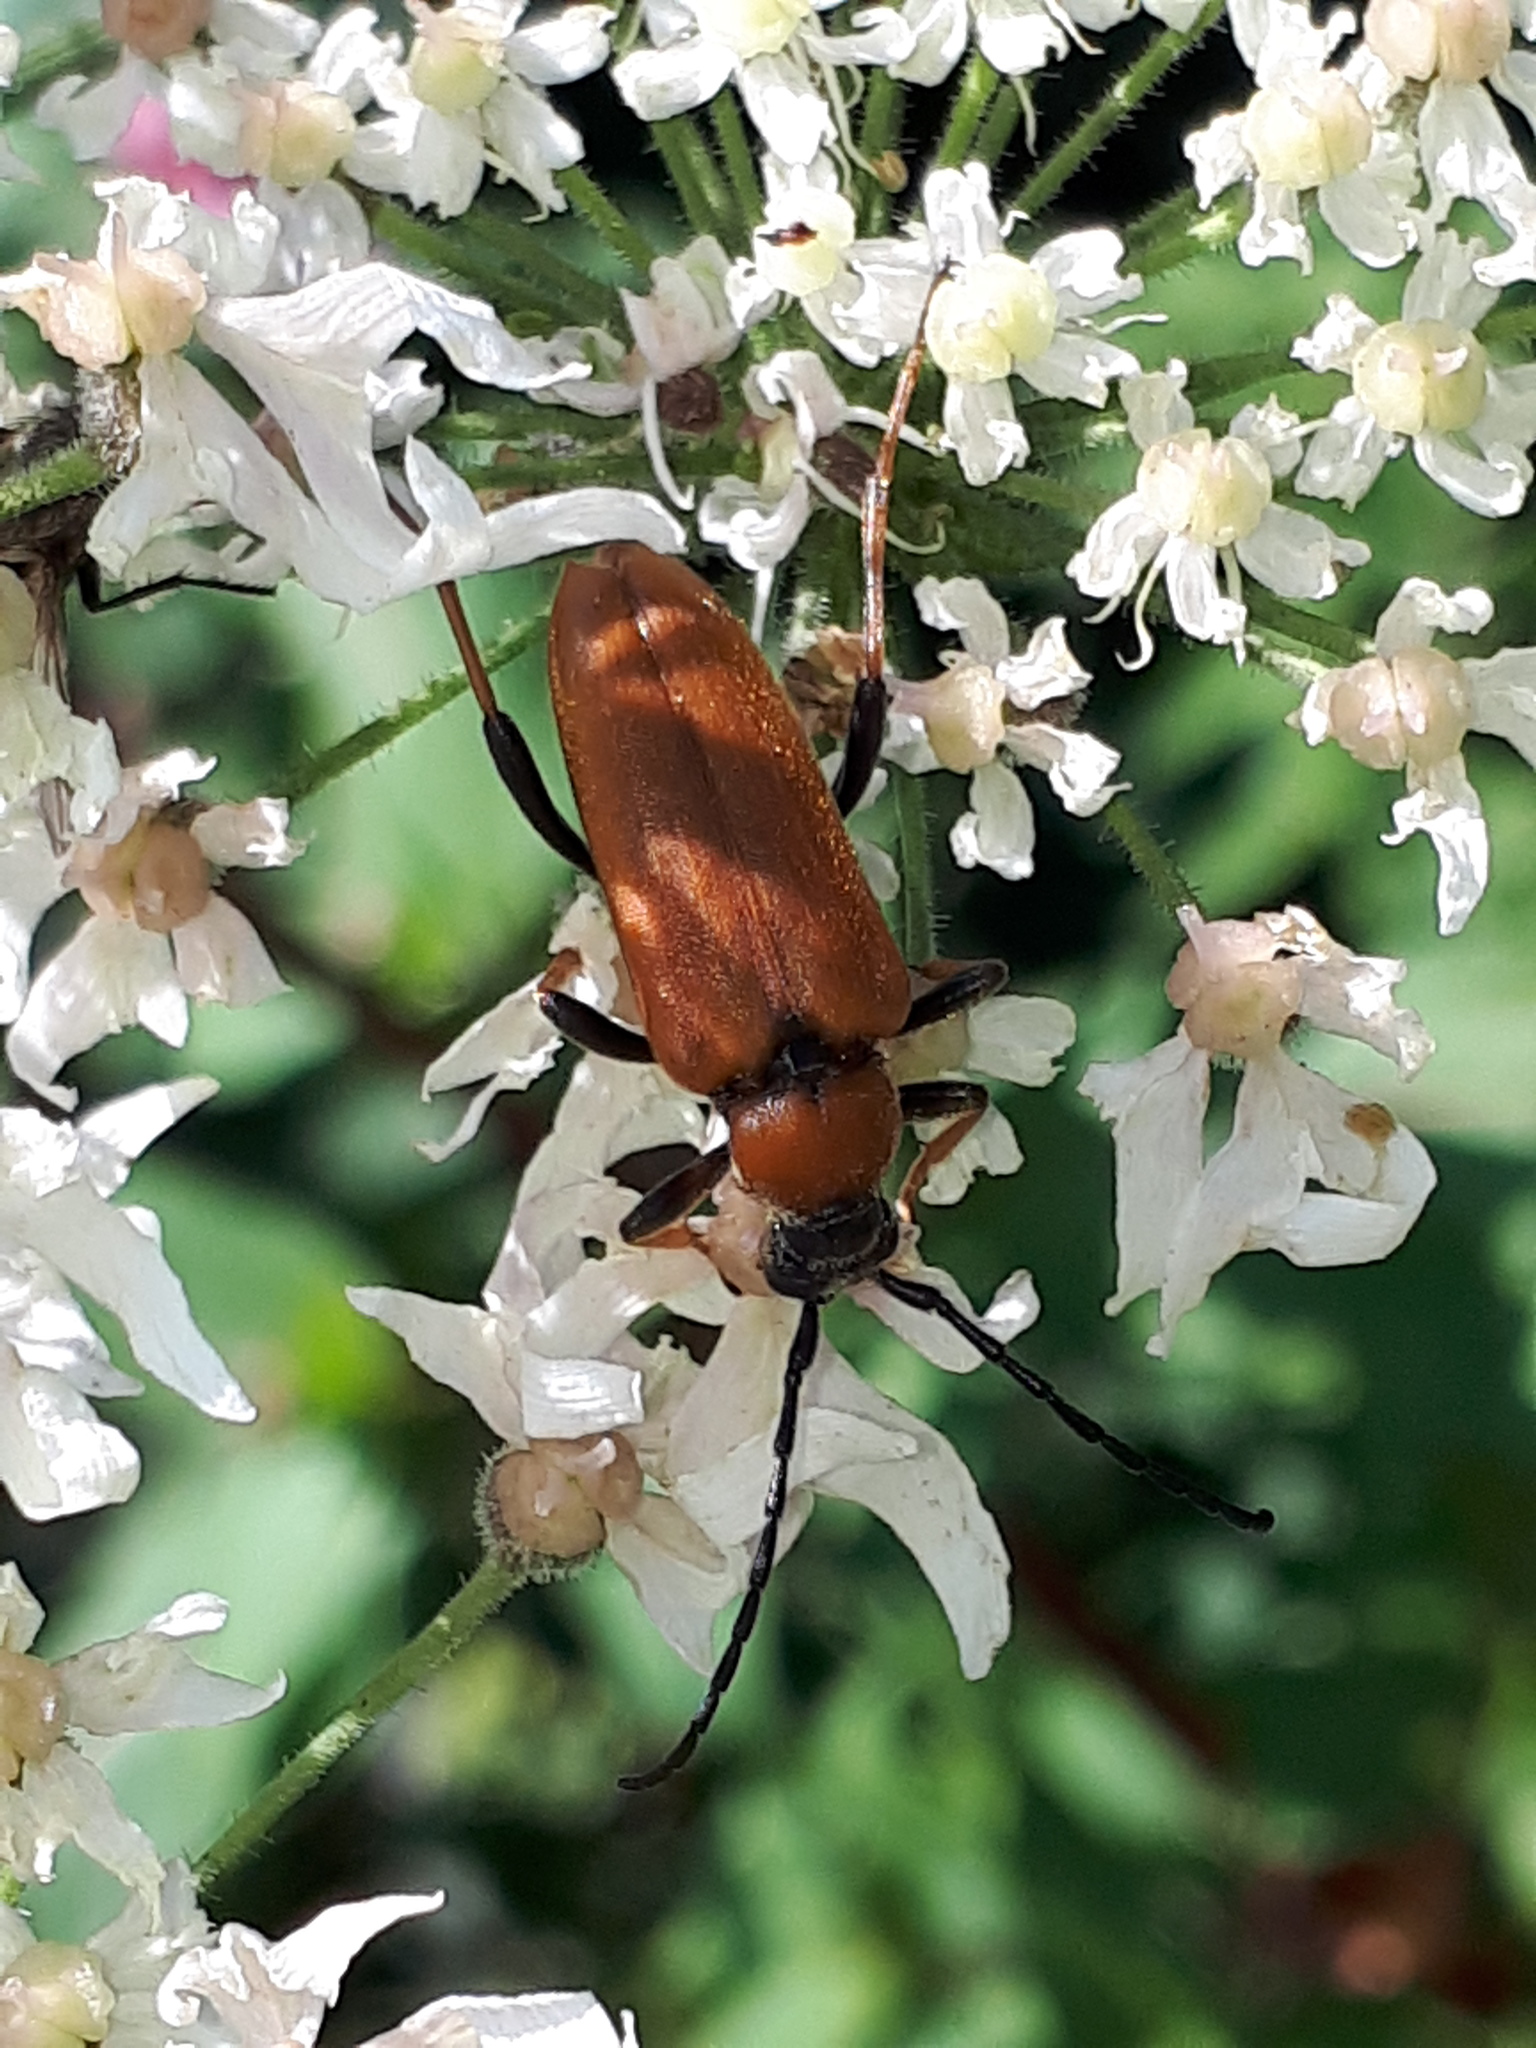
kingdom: Animalia
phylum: Arthropoda
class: Insecta
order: Coleoptera
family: Cerambycidae
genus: Stictoleptura
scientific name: Stictoleptura rubra
